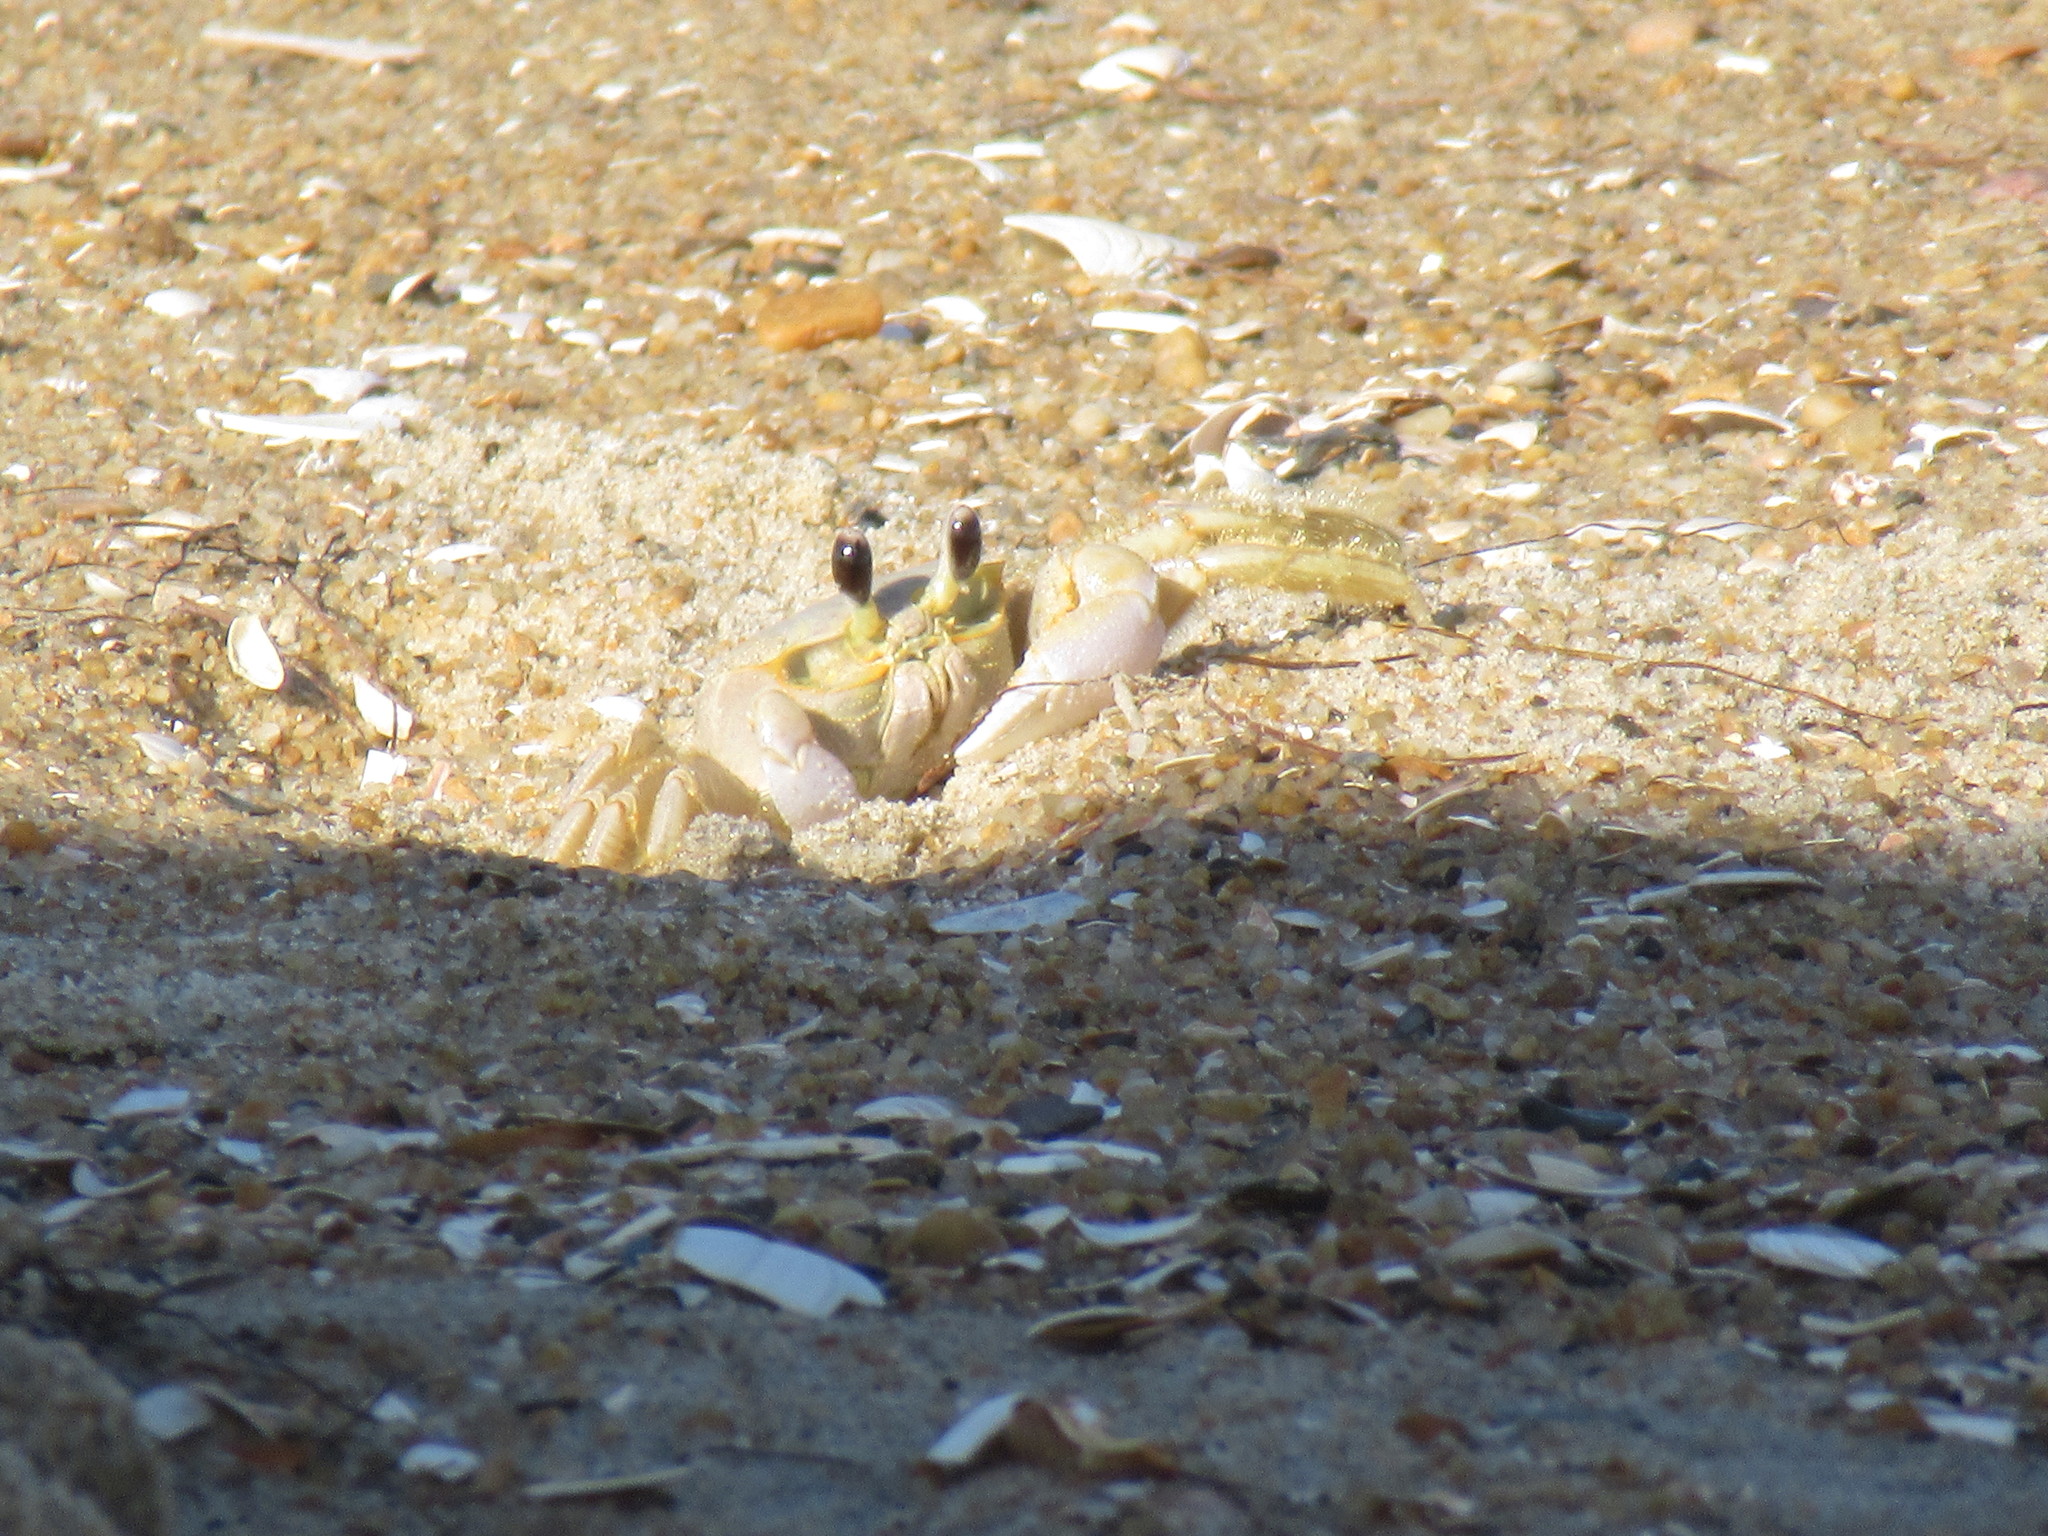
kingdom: Animalia
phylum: Arthropoda
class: Malacostraca
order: Decapoda
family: Ocypodidae
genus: Ocypode
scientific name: Ocypode quadrata
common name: Ghost crab
